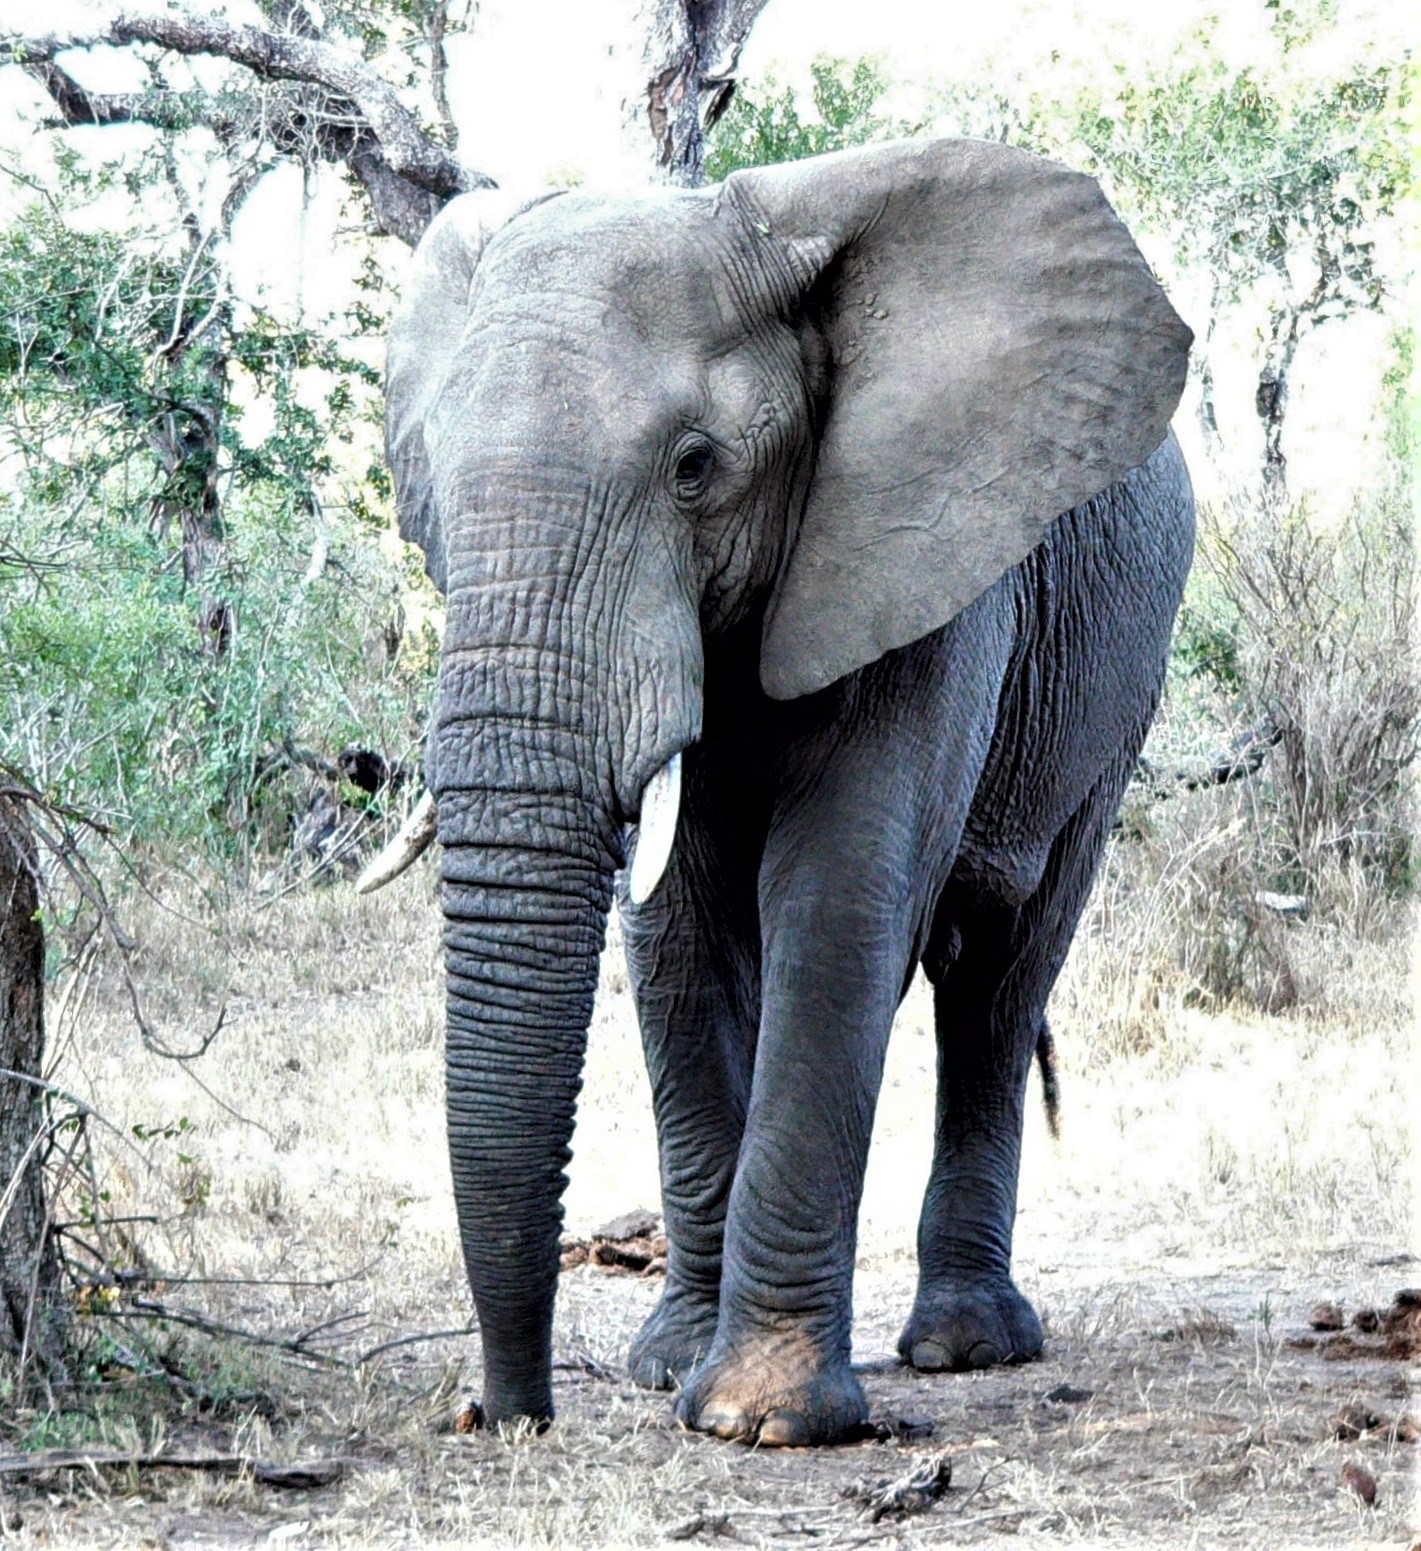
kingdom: Animalia
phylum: Chordata
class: Mammalia
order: Proboscidea
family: Elephantidae
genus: Loxodonta
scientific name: Loxodonta africana
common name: African elephant
